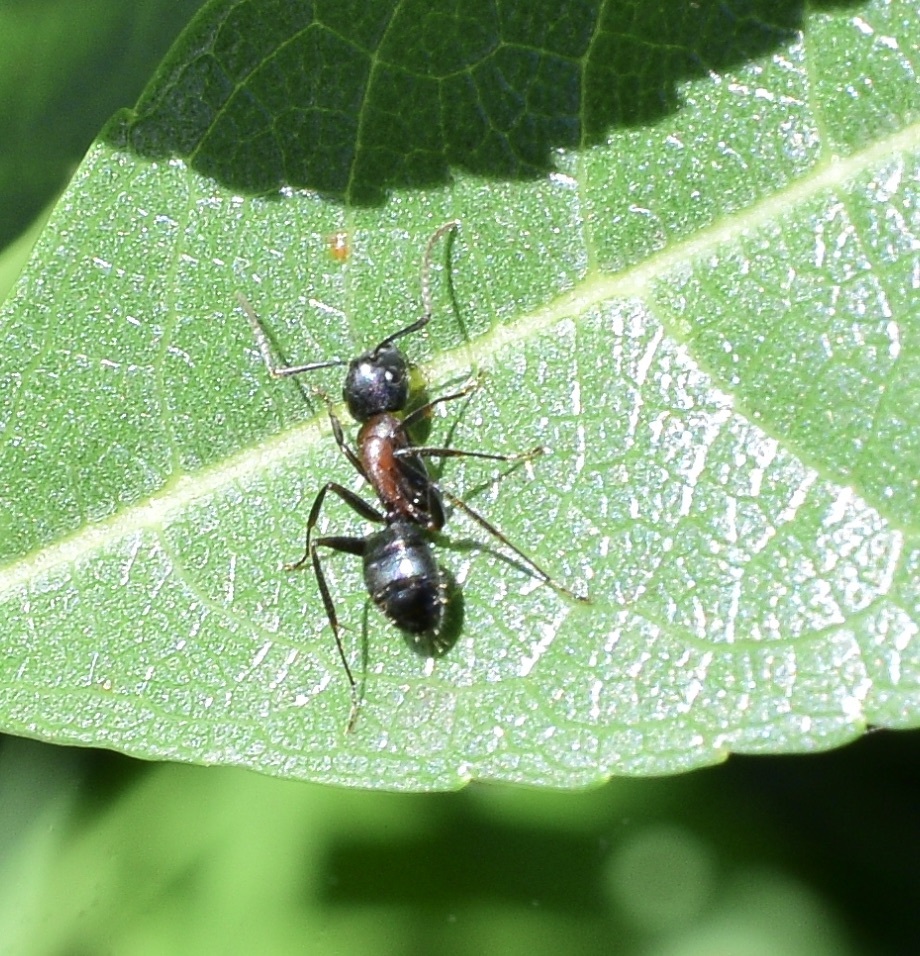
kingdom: Animalia
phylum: Arthropoda
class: Insecta
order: Hymenoptera
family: Formicidae
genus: Camponotus
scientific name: Camponotus novaeboracensis
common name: New york carpenter ant
